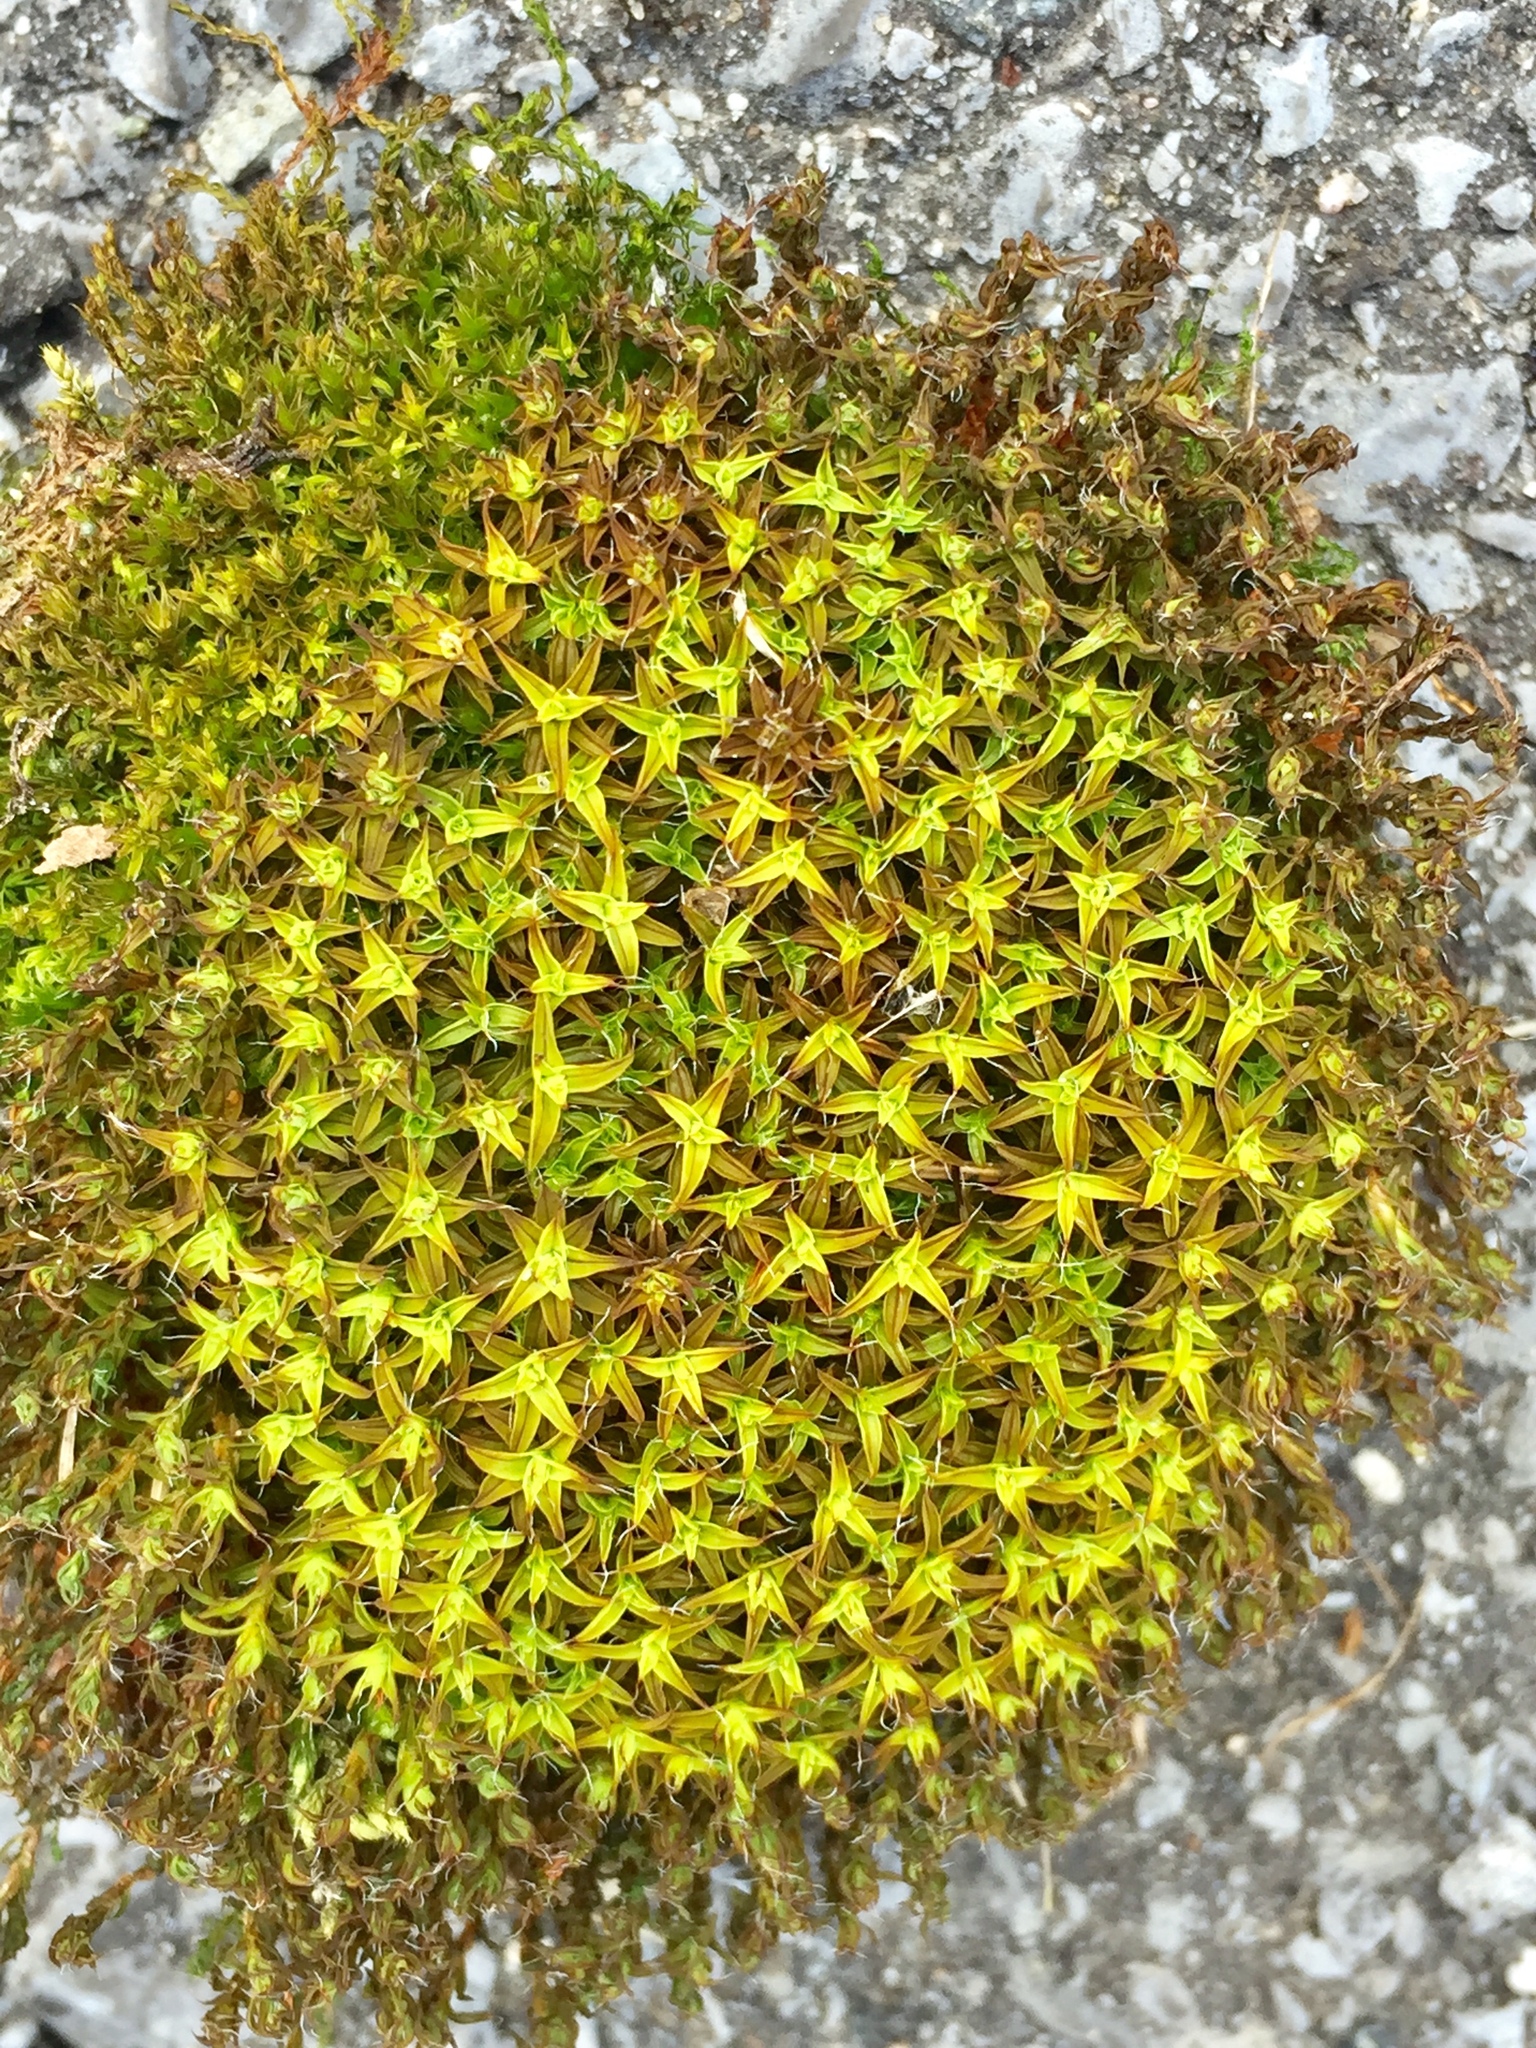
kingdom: Plantae
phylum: Bryophyta
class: Bryopsida
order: Pottiales
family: Pottiaceae
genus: Syntrichia
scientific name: Syntrichia ruralis
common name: Sidewalk screw moss
